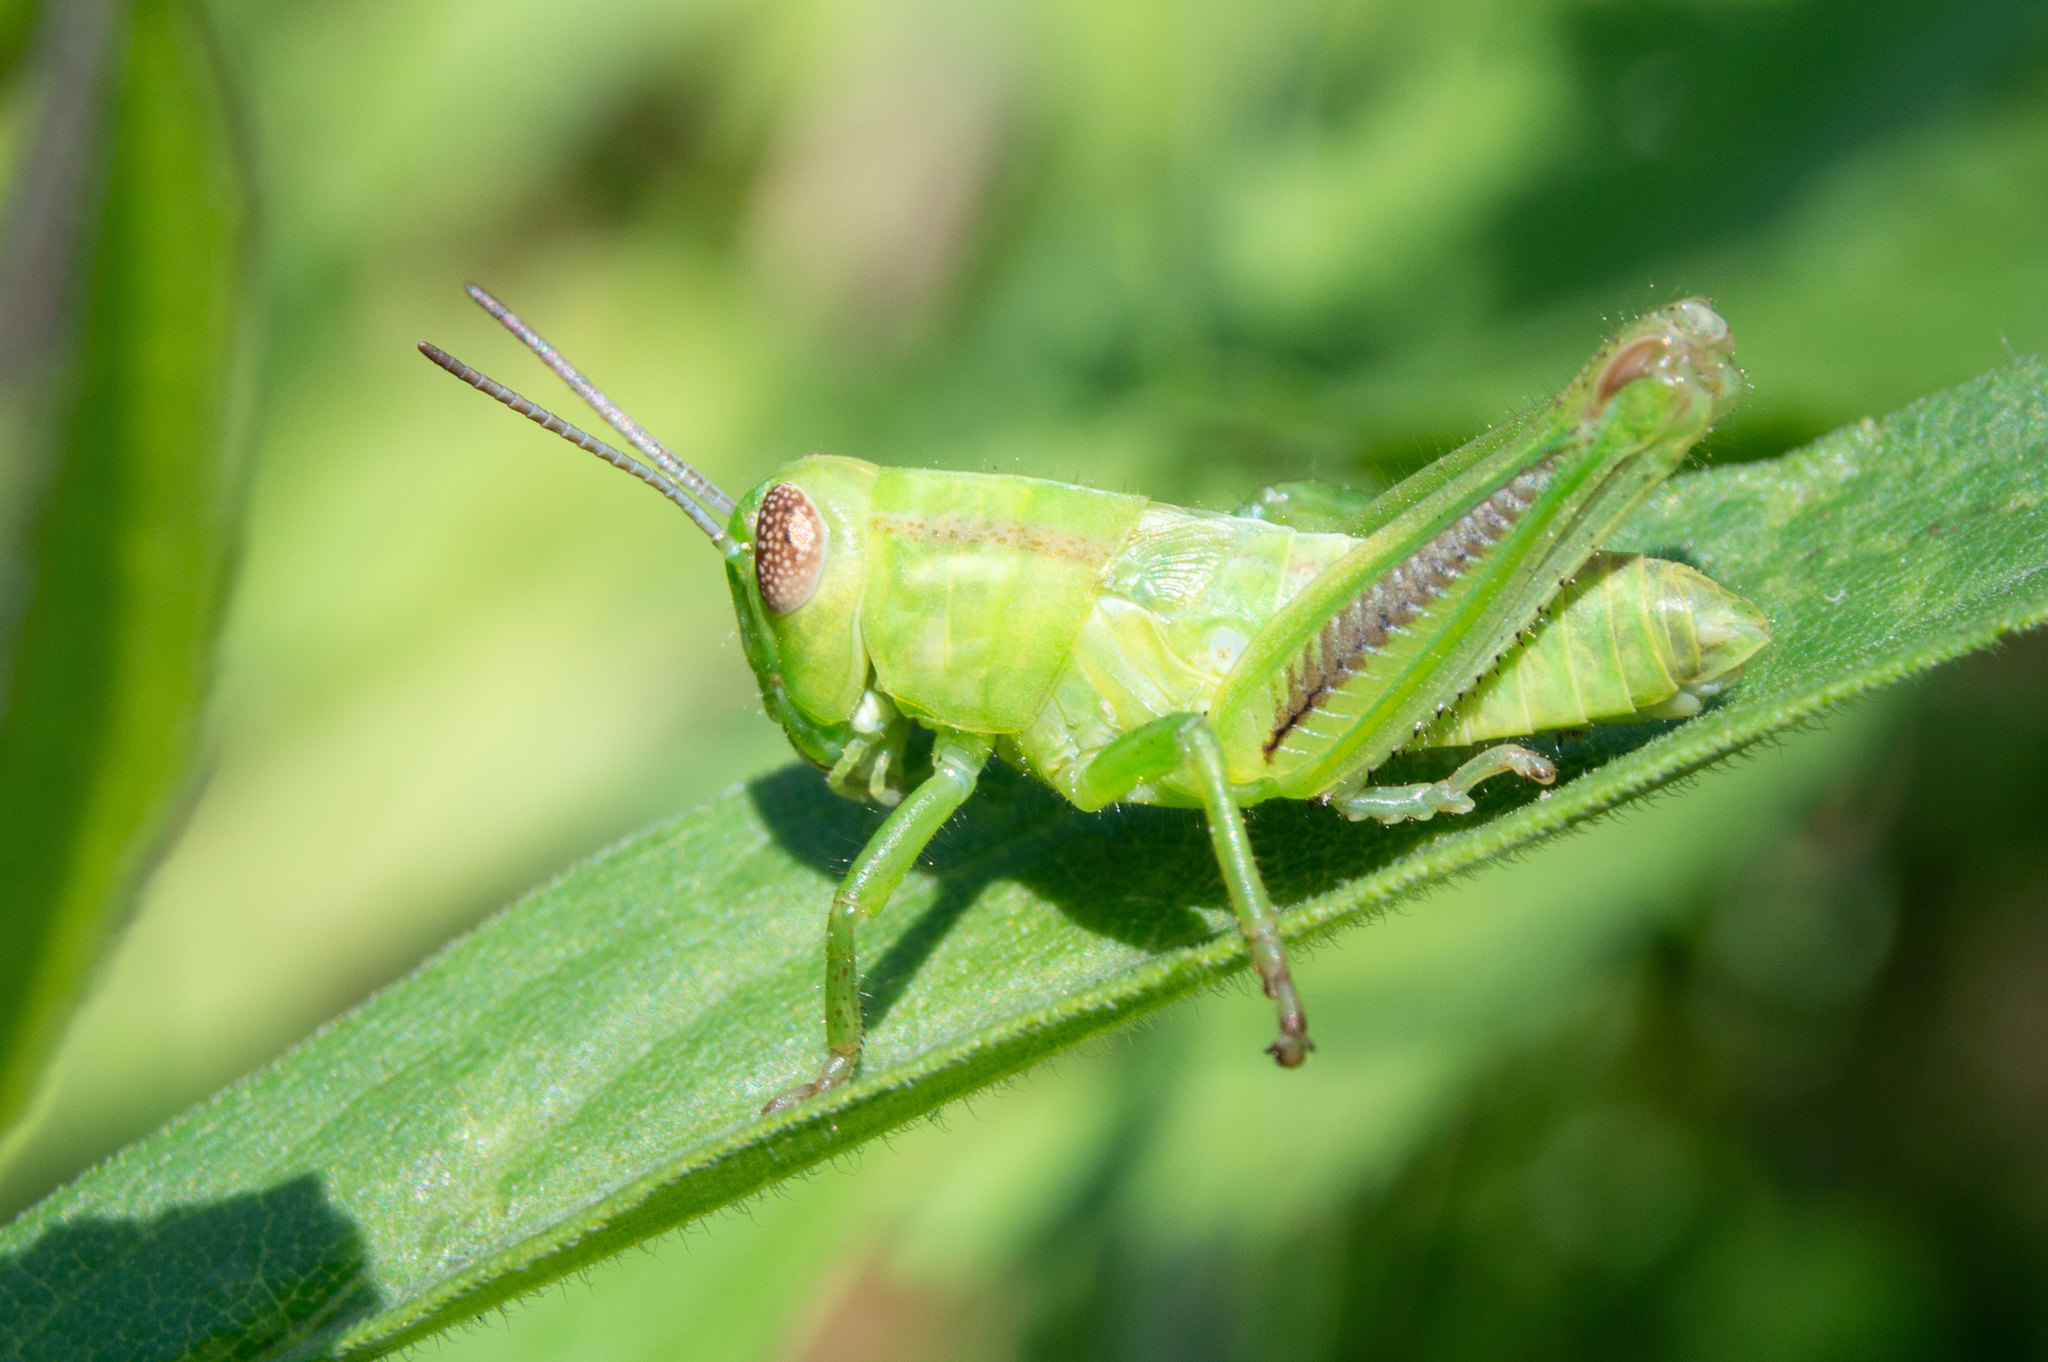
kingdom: Animalia
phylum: Arthropoda
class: Insecta
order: Orthoptera
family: Acrididae
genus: Melanoplus
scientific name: Melanoplus bivittatus
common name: Two-striped grasshopper
